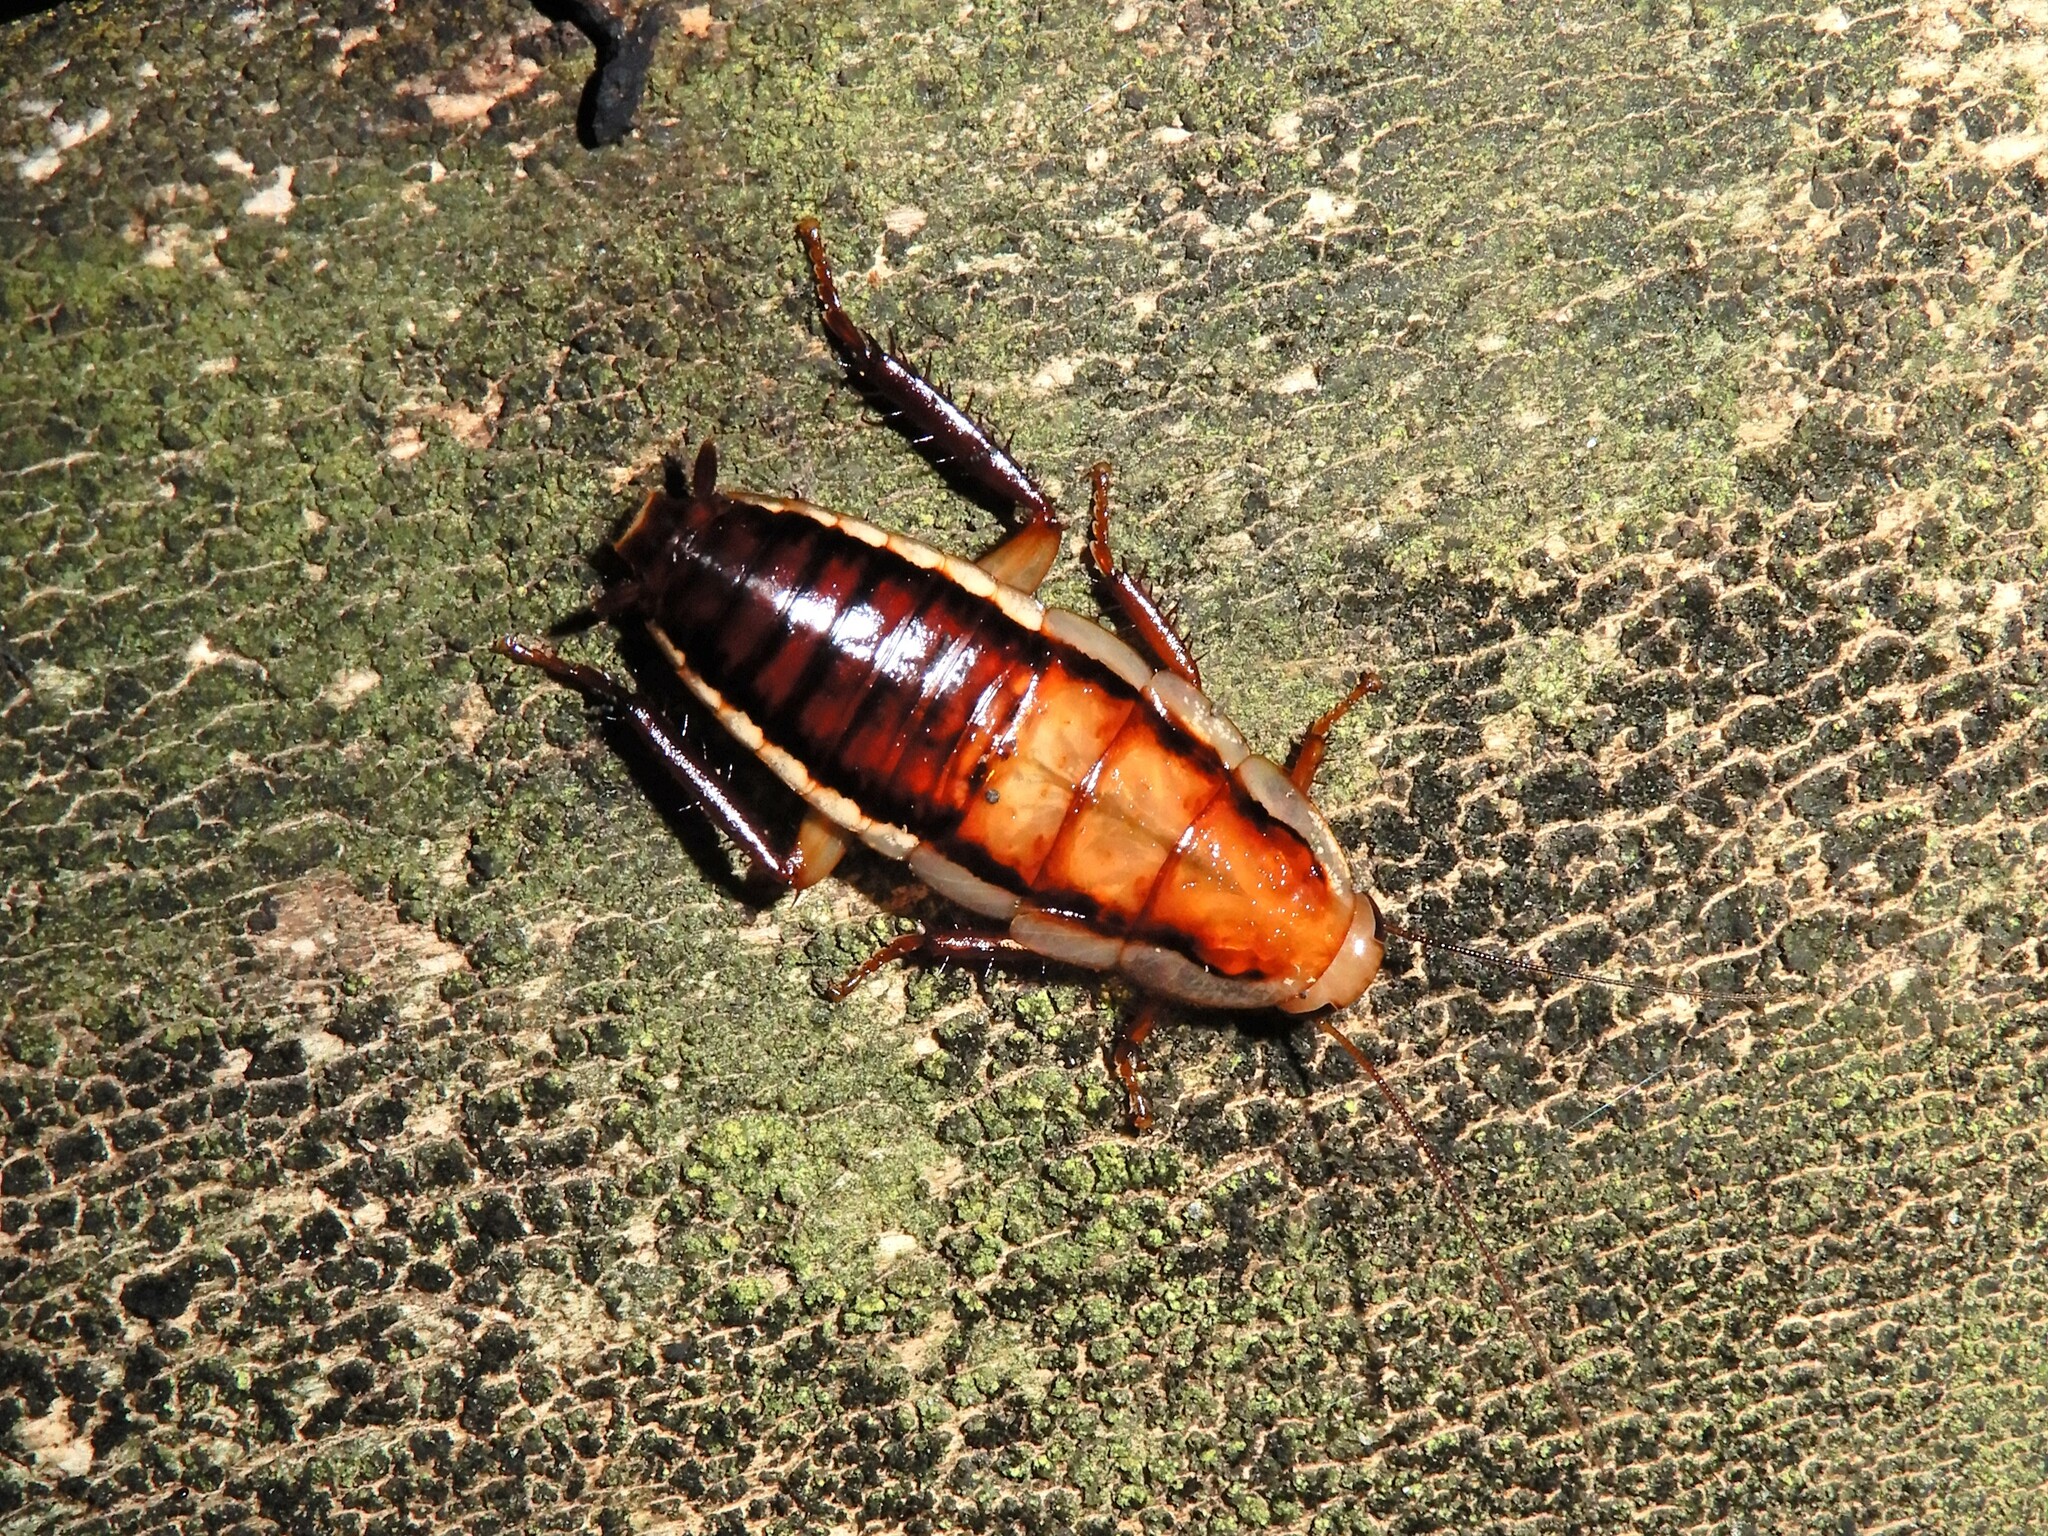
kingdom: Animalia
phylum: Arthropoda
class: Insecta
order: Blattodea
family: Blattidae
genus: Drymaplaneta
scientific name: Drymaplaneta heydeniana
